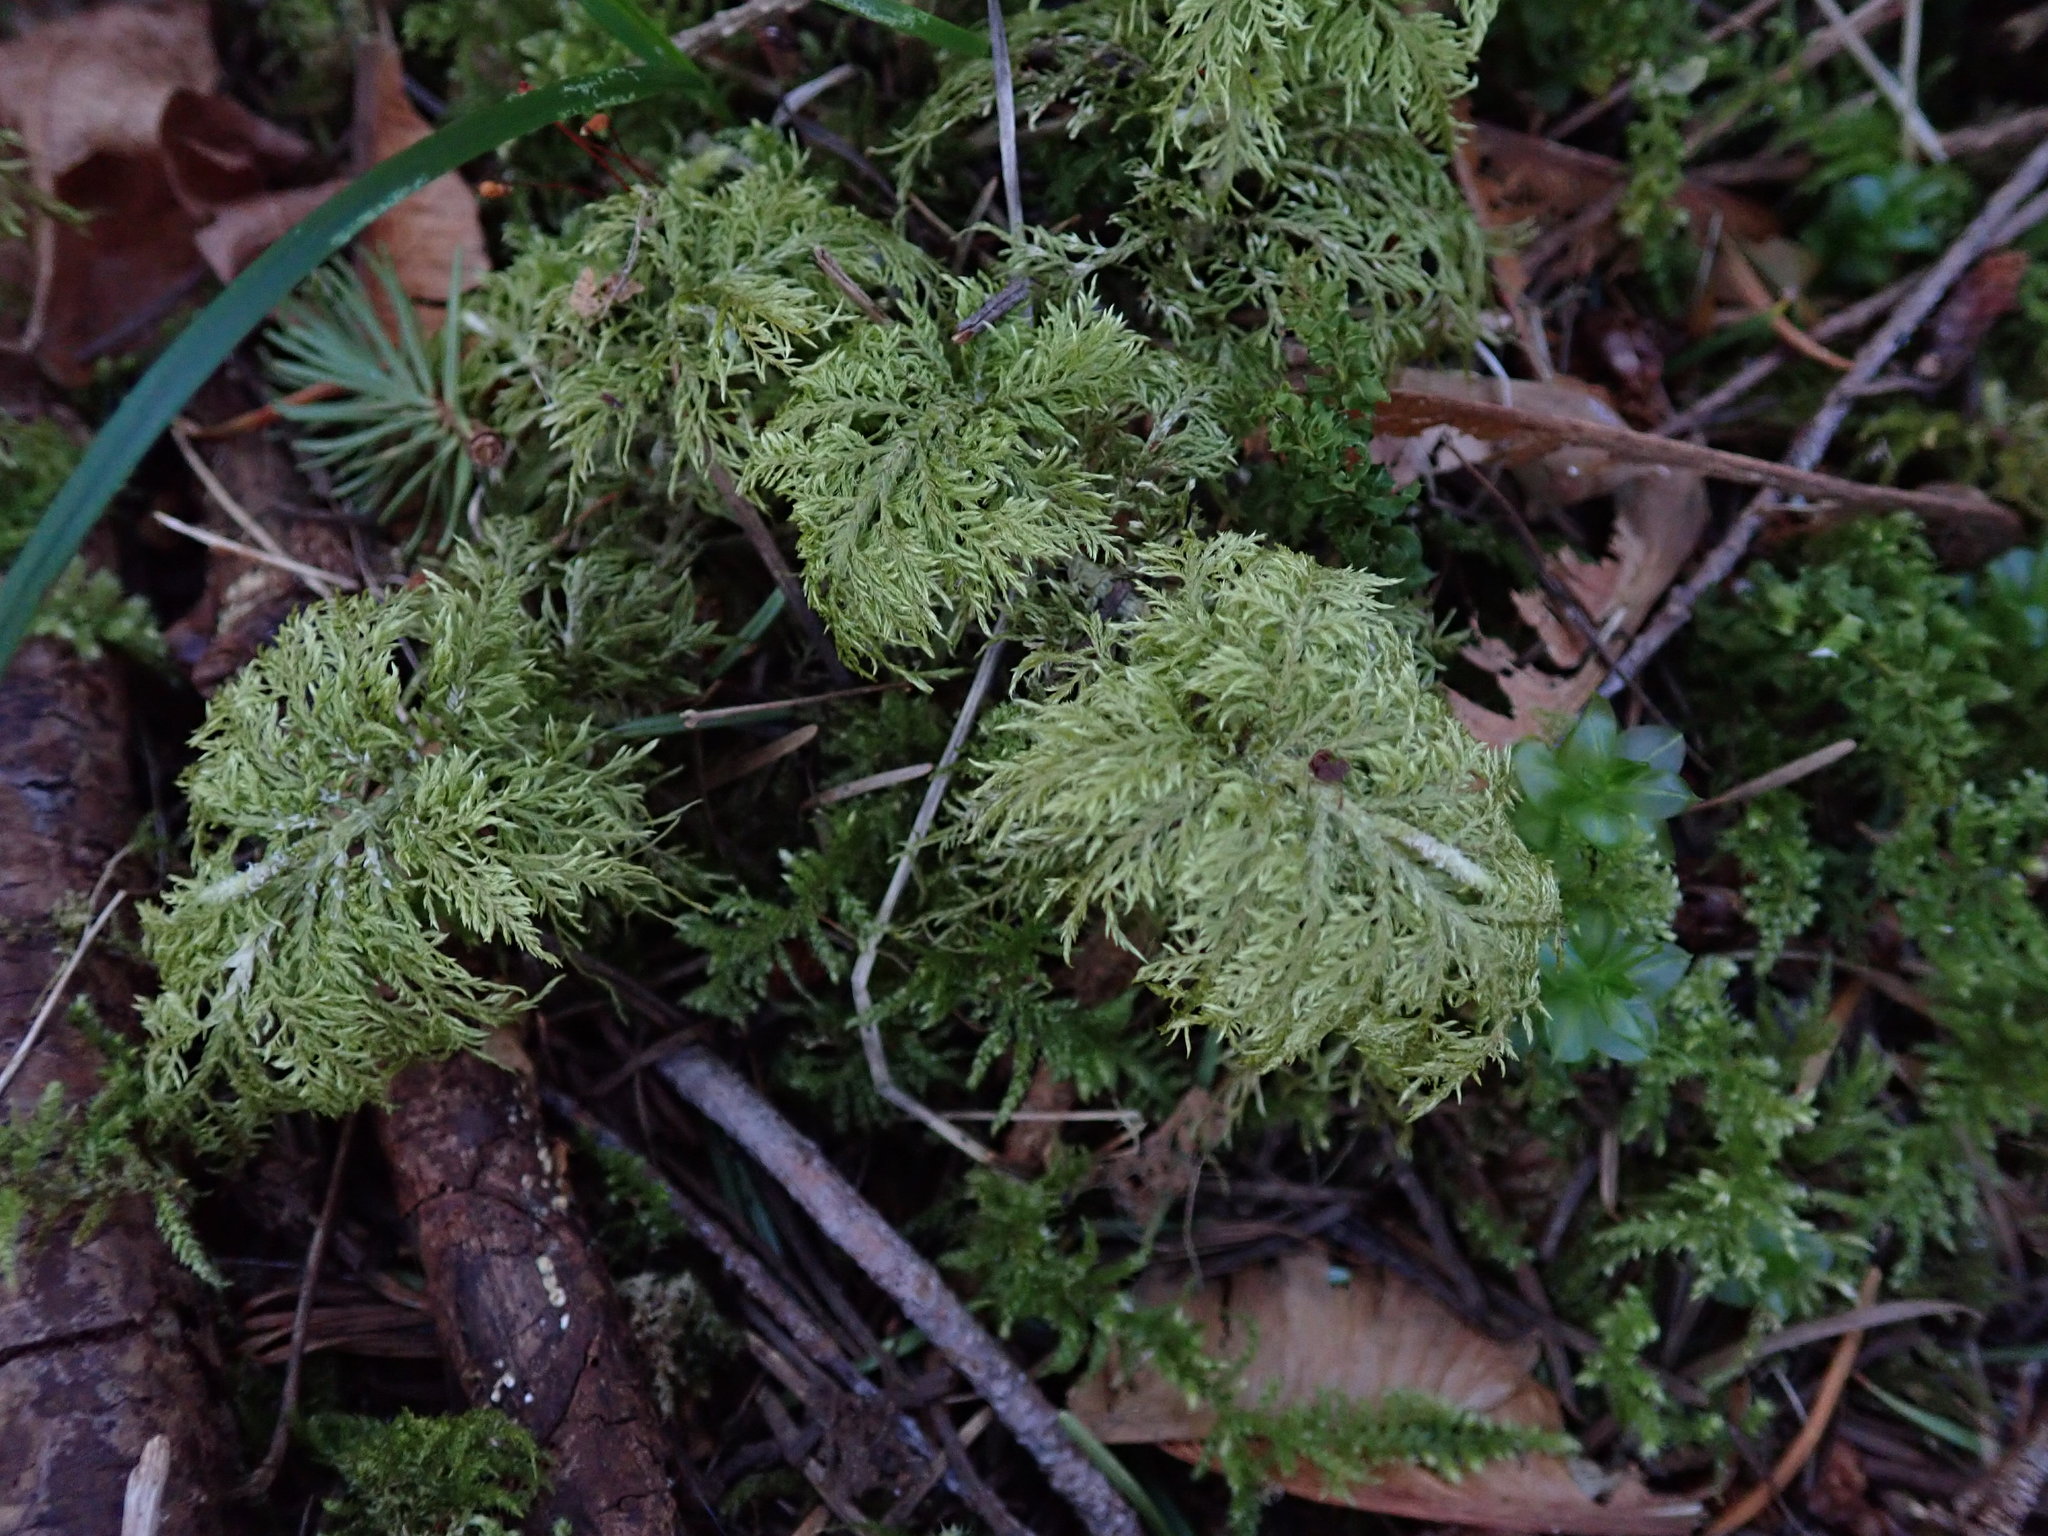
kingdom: Plantae
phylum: Bryophyta
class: Bryopsida
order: Hypnales
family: Hylocomiaceae
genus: Hylocomium
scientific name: Hylocomium splendens
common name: Stairstep moss
